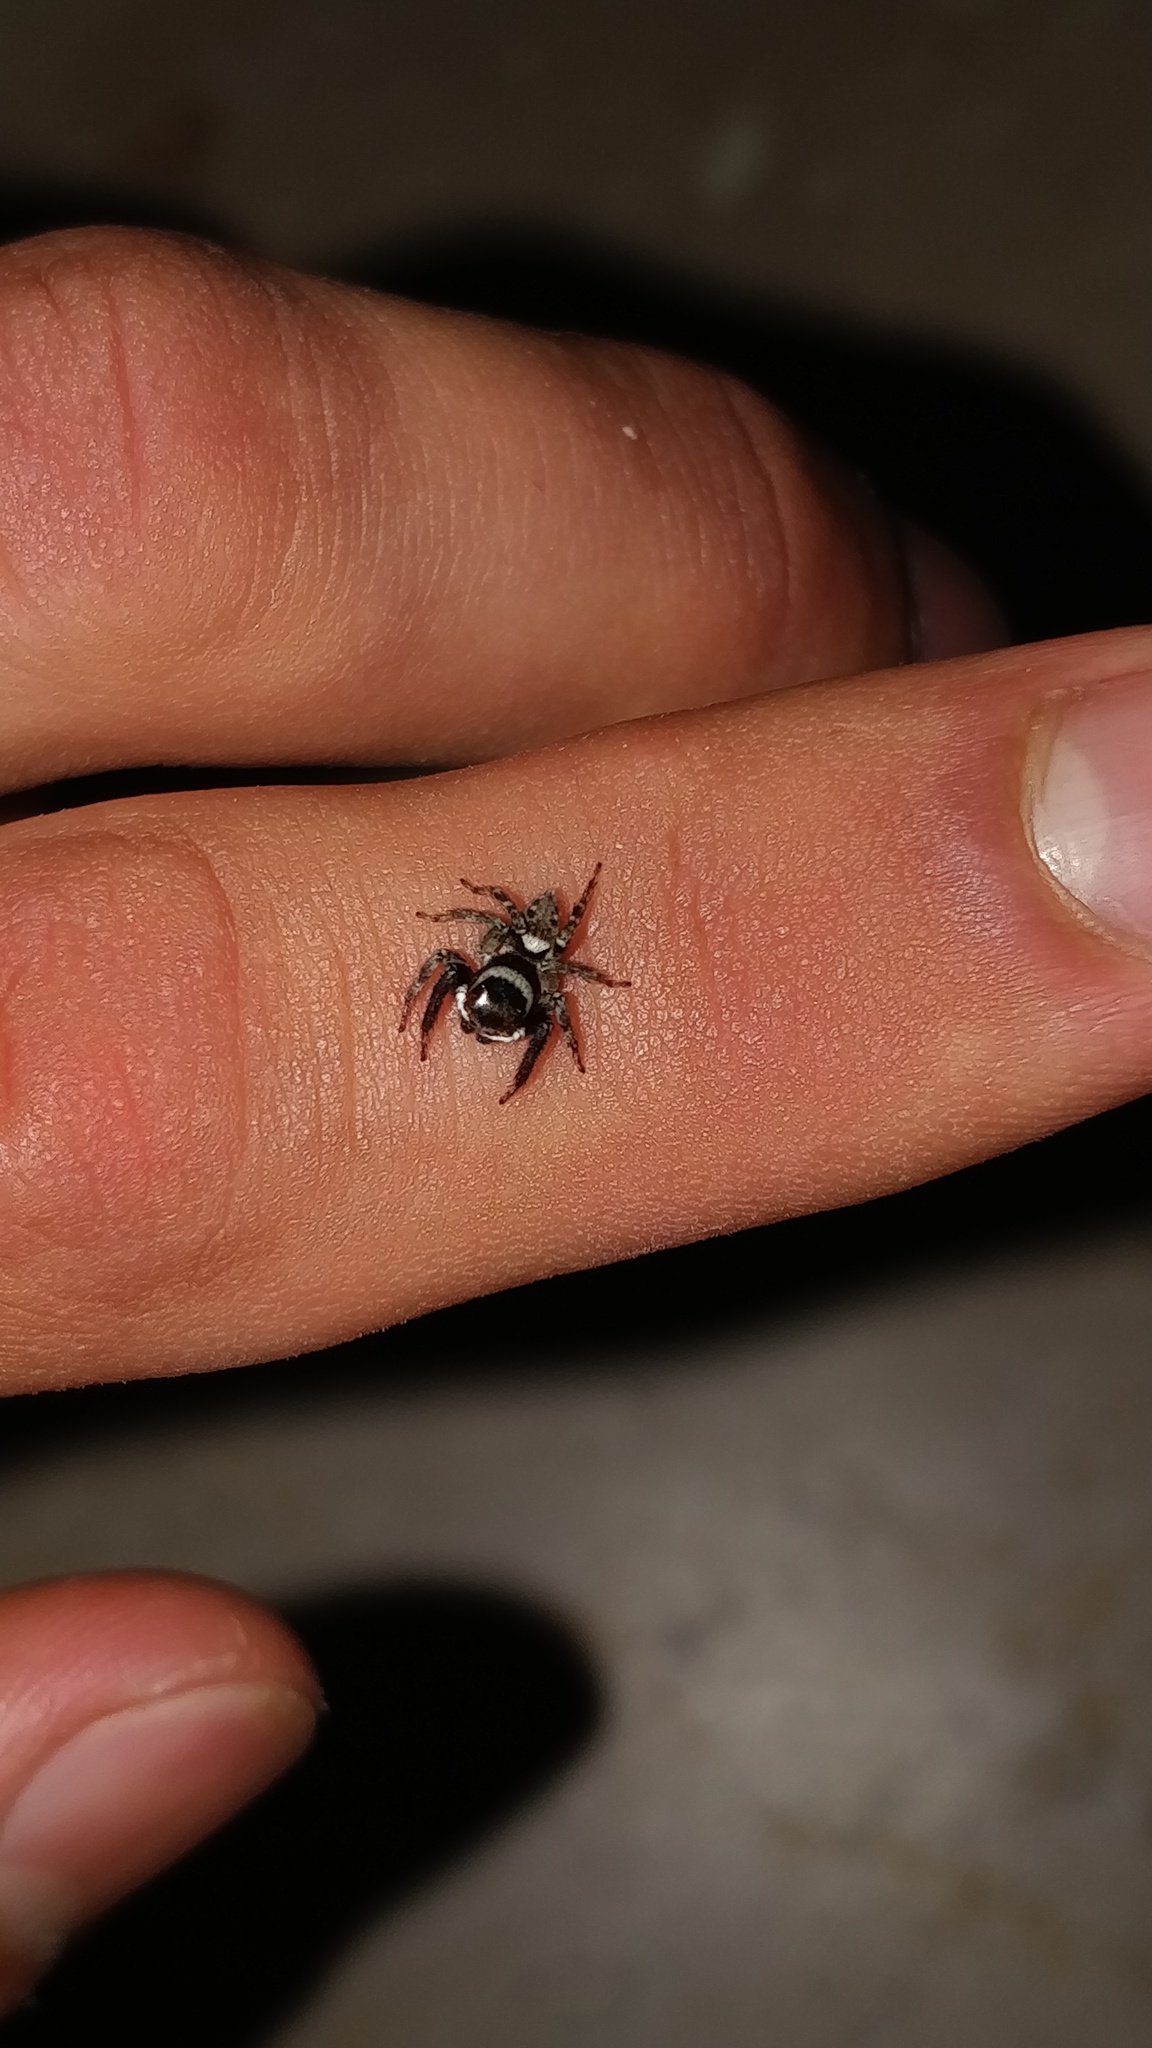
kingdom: Animalia
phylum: Arthropoda
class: Arachnida
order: Araneae
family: Salticidae
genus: Hasarius
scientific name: Hasarius adansoni
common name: Jumping spider
